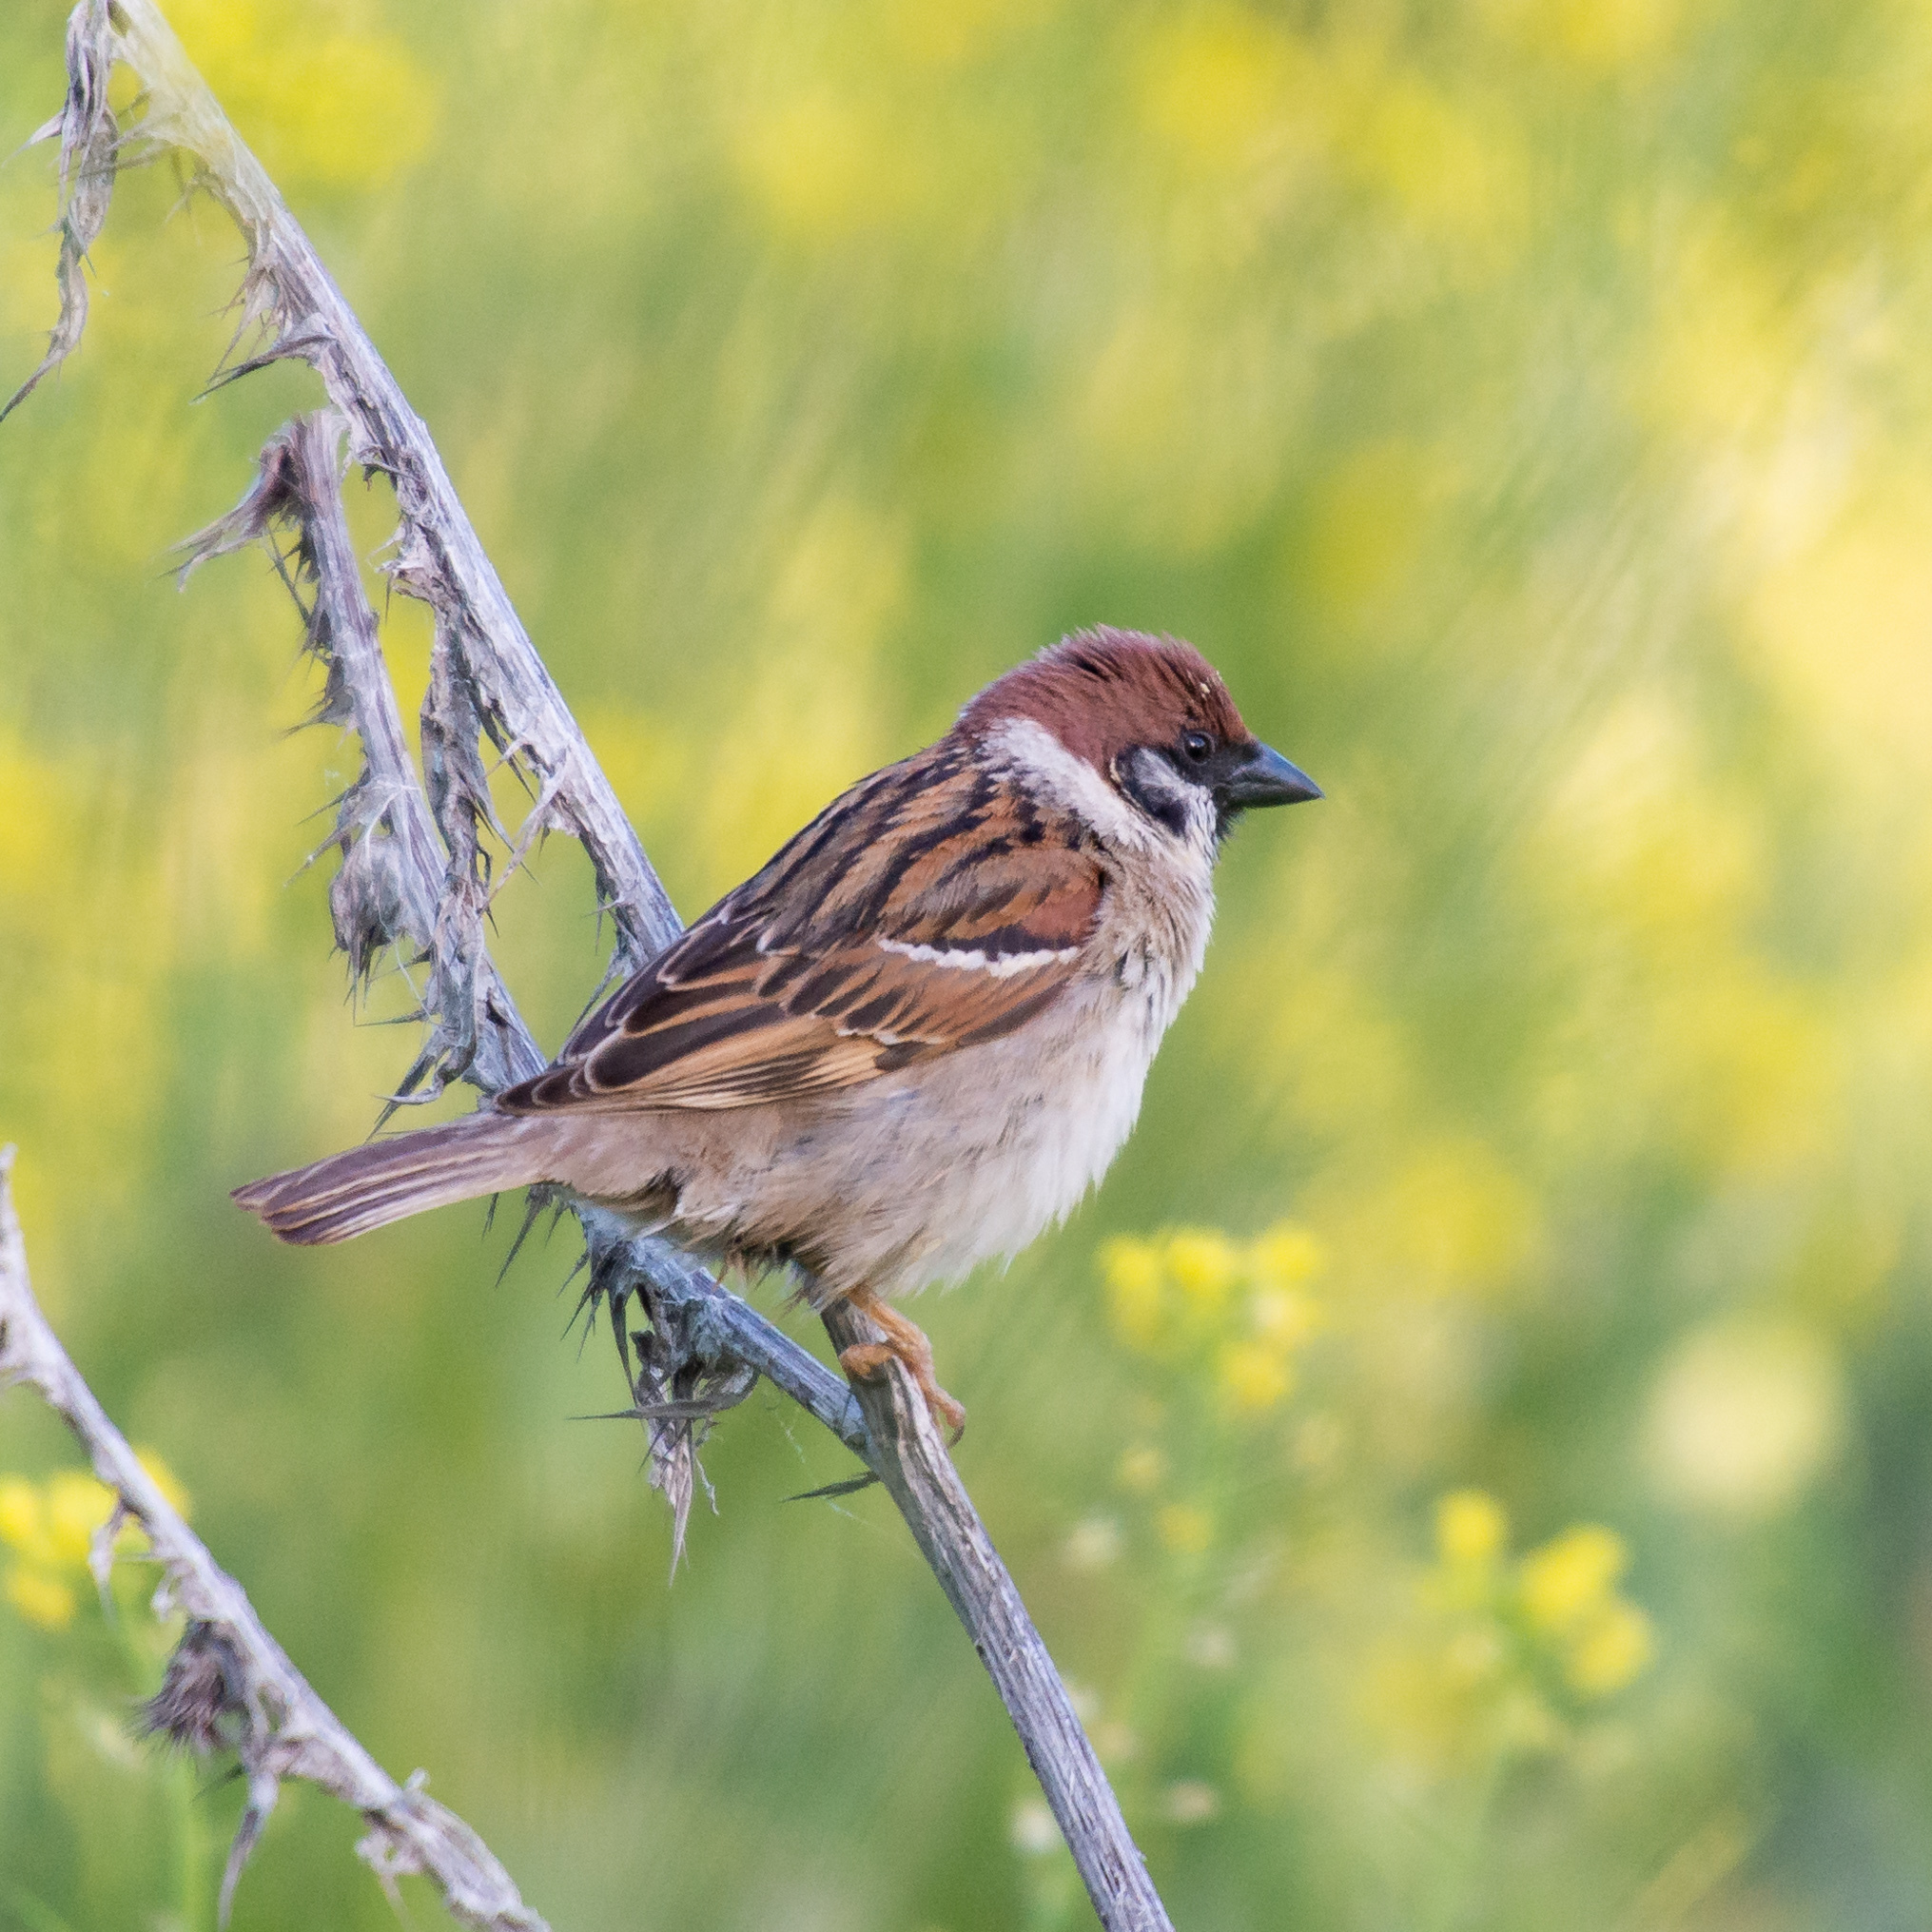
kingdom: Animalia
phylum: Chordata
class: Aves
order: Passeriformes
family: Passeridae
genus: Passer
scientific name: Passer montanus
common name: Eurasian tree sparrow
